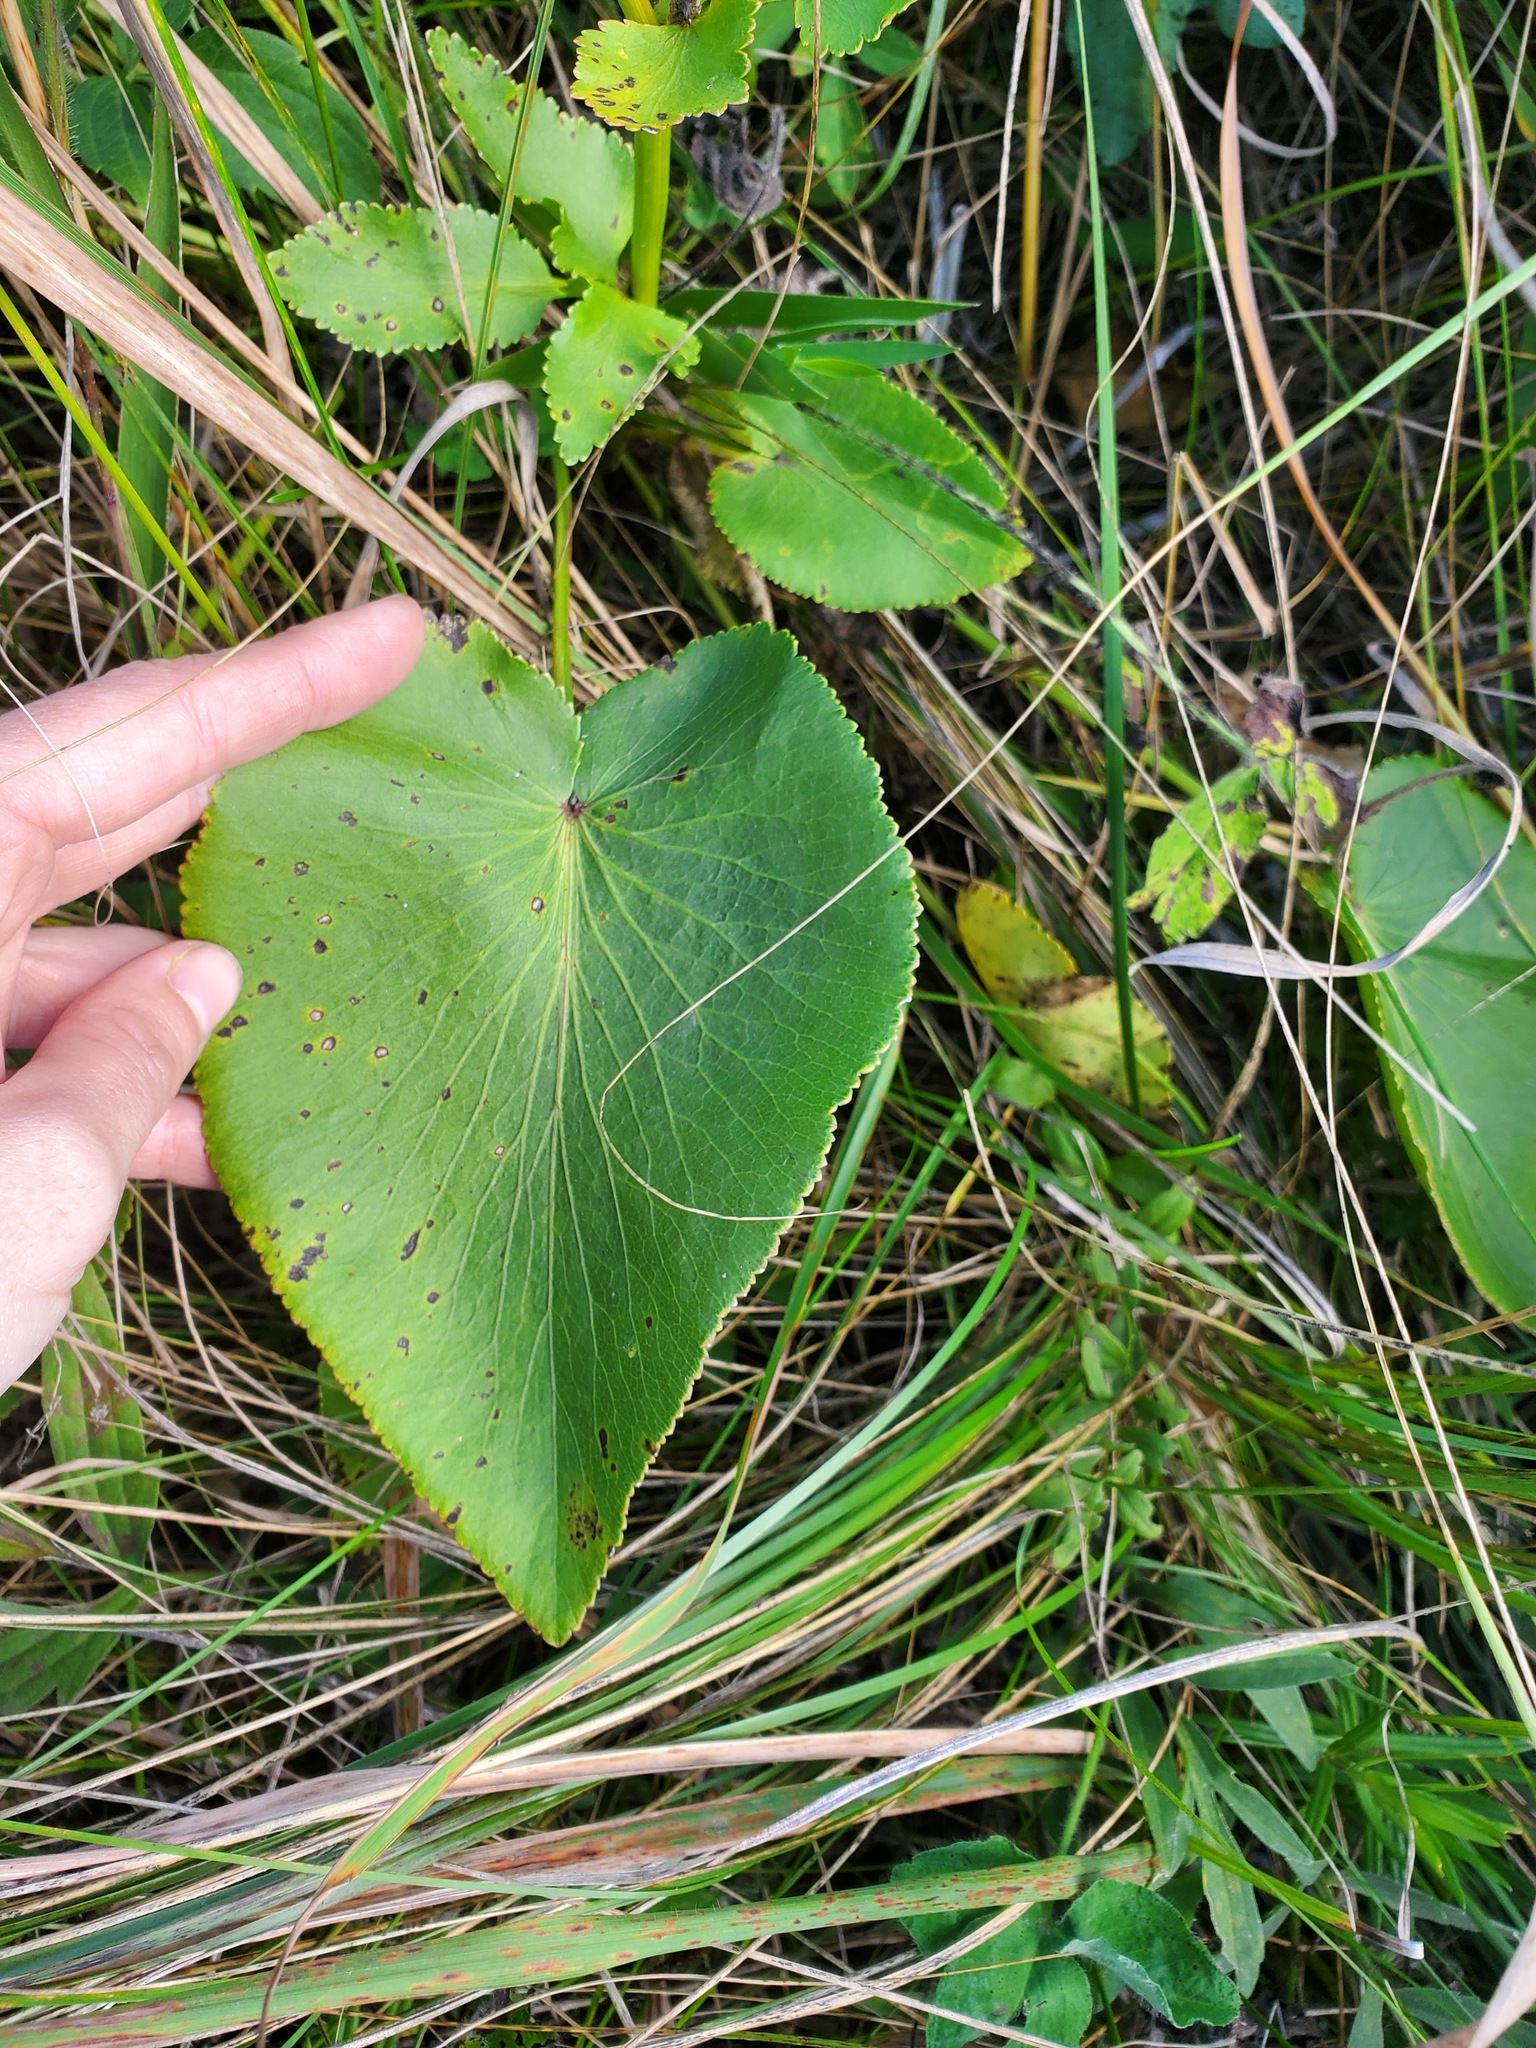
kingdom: Plantae
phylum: Tracheophyta
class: Magnoliopsida
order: Apiales
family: Apiaceae
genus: Zizia
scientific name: Zizia aptera
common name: Heart-leaved alexanders
